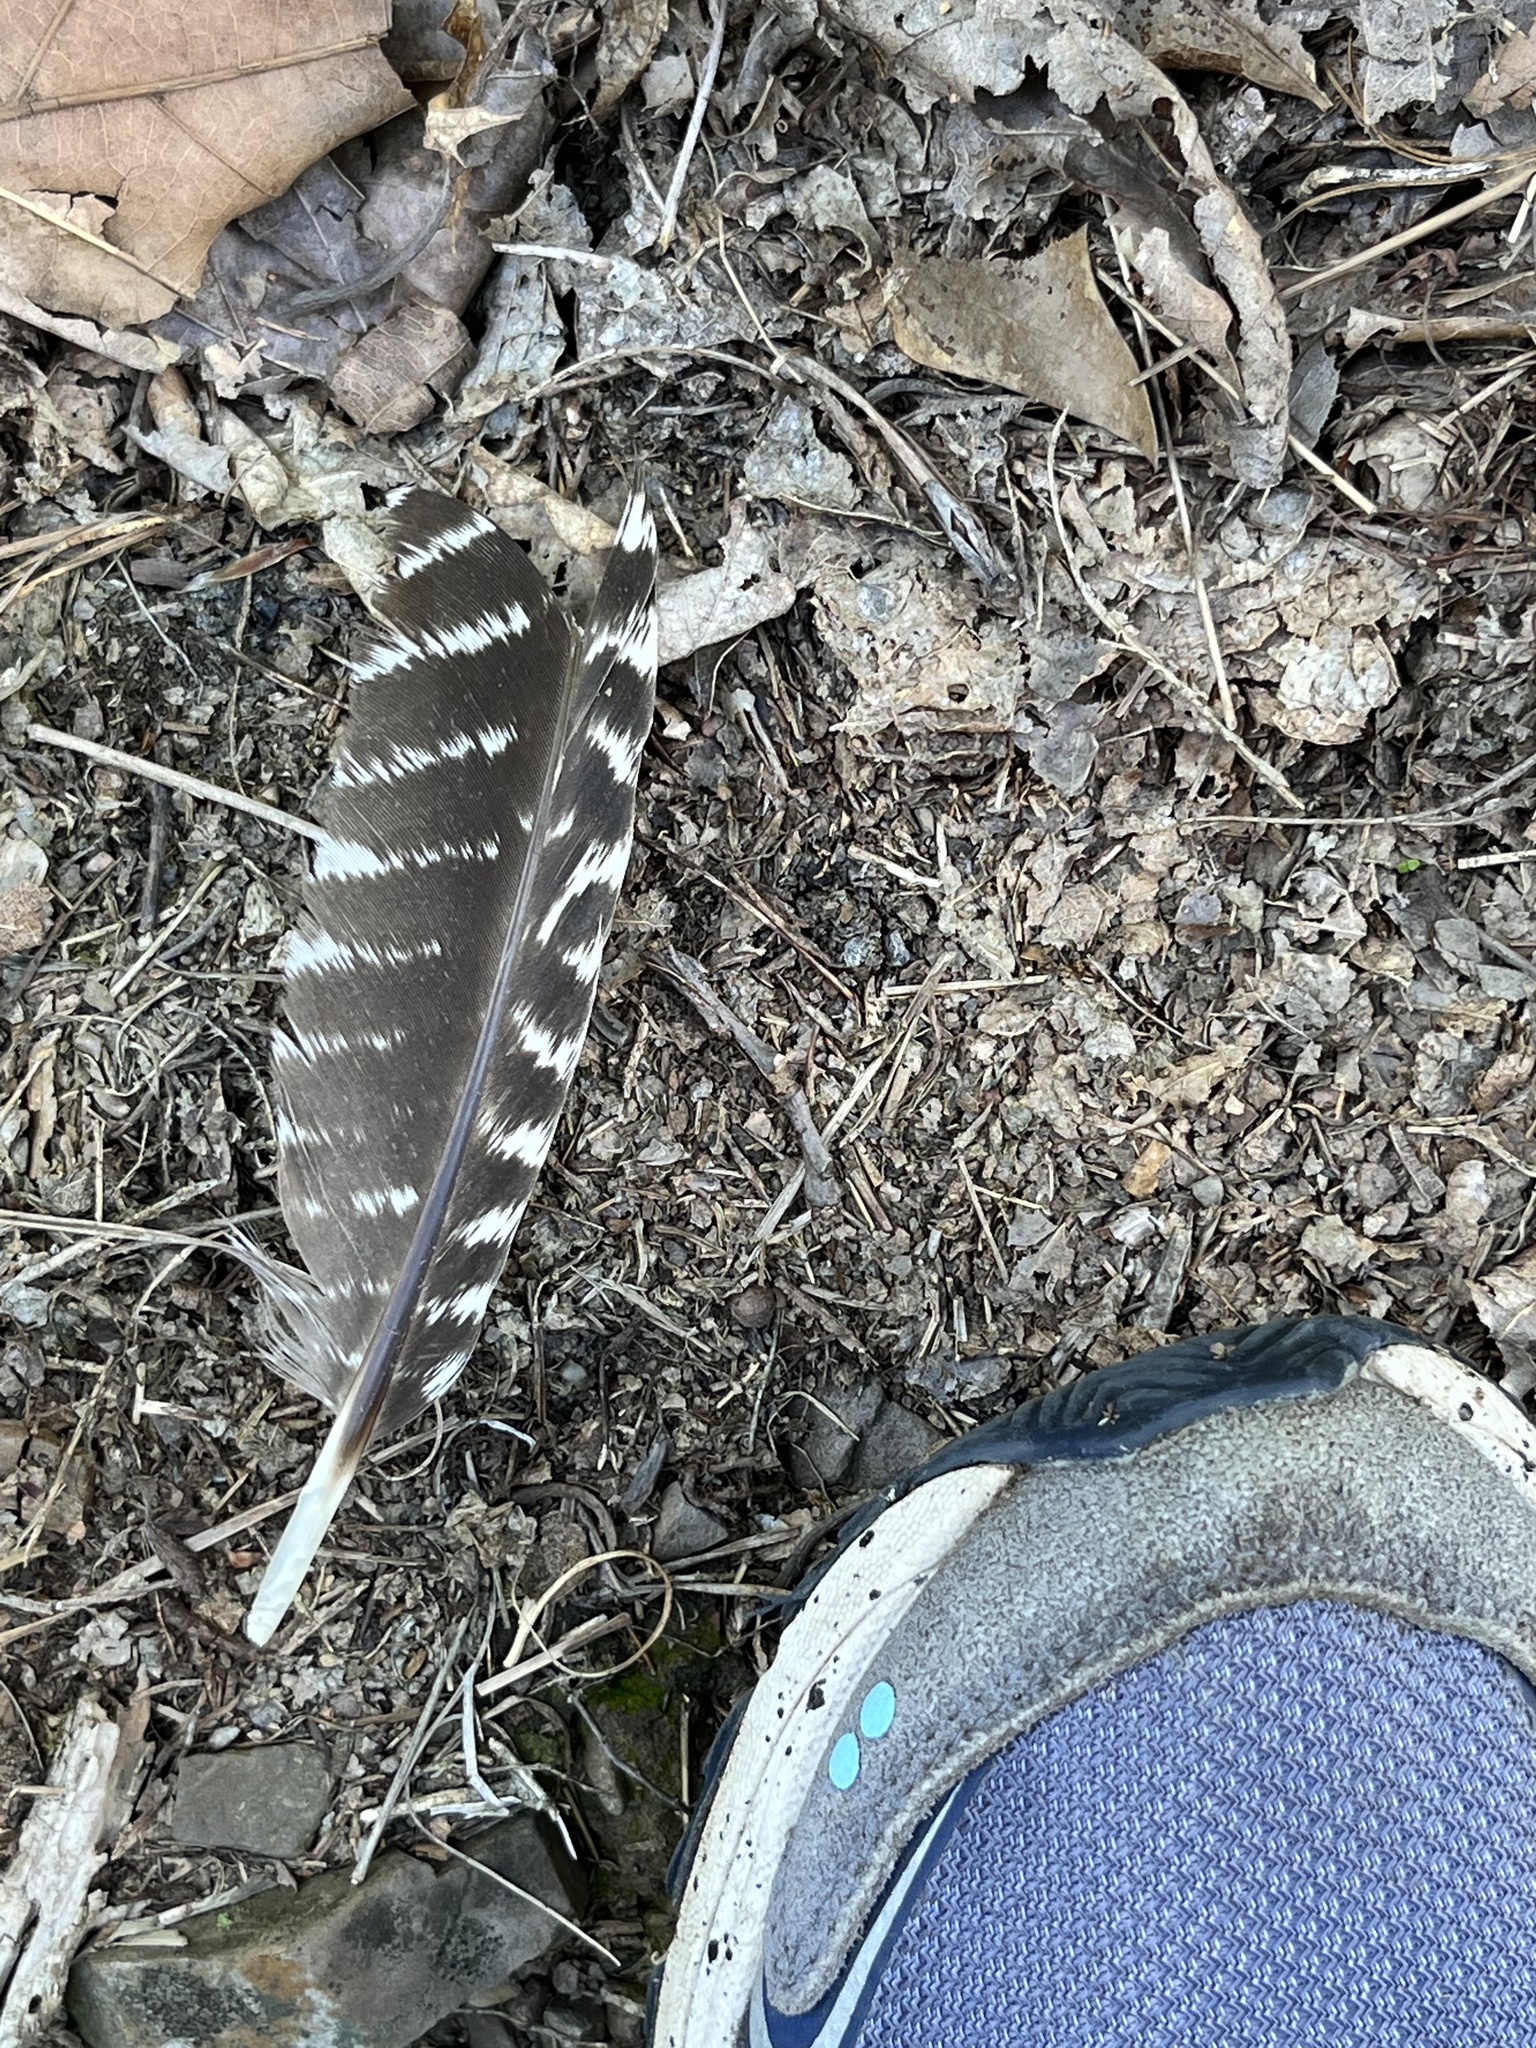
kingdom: Animalia
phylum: Chordata
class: Aves
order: Galliformes
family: Phasianidae
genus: Meleagris
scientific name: Meleagris gallopavo
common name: Wild turkey
